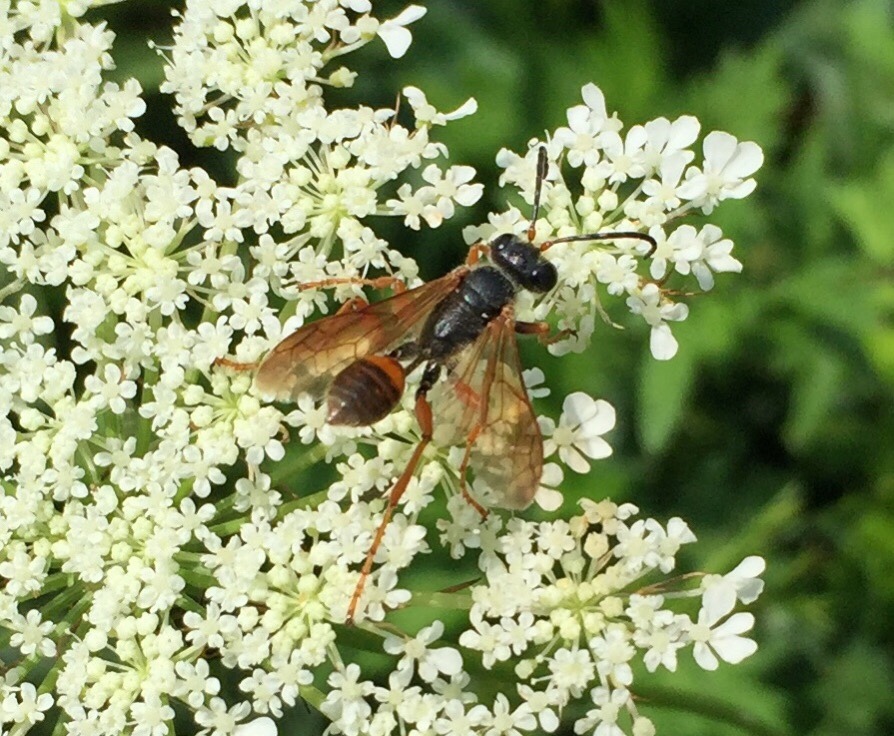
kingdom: Animalia
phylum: Arthropoda
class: Insecta
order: Hymenoptera
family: Sphecidae
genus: Isodontia
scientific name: Isodontia elegans
